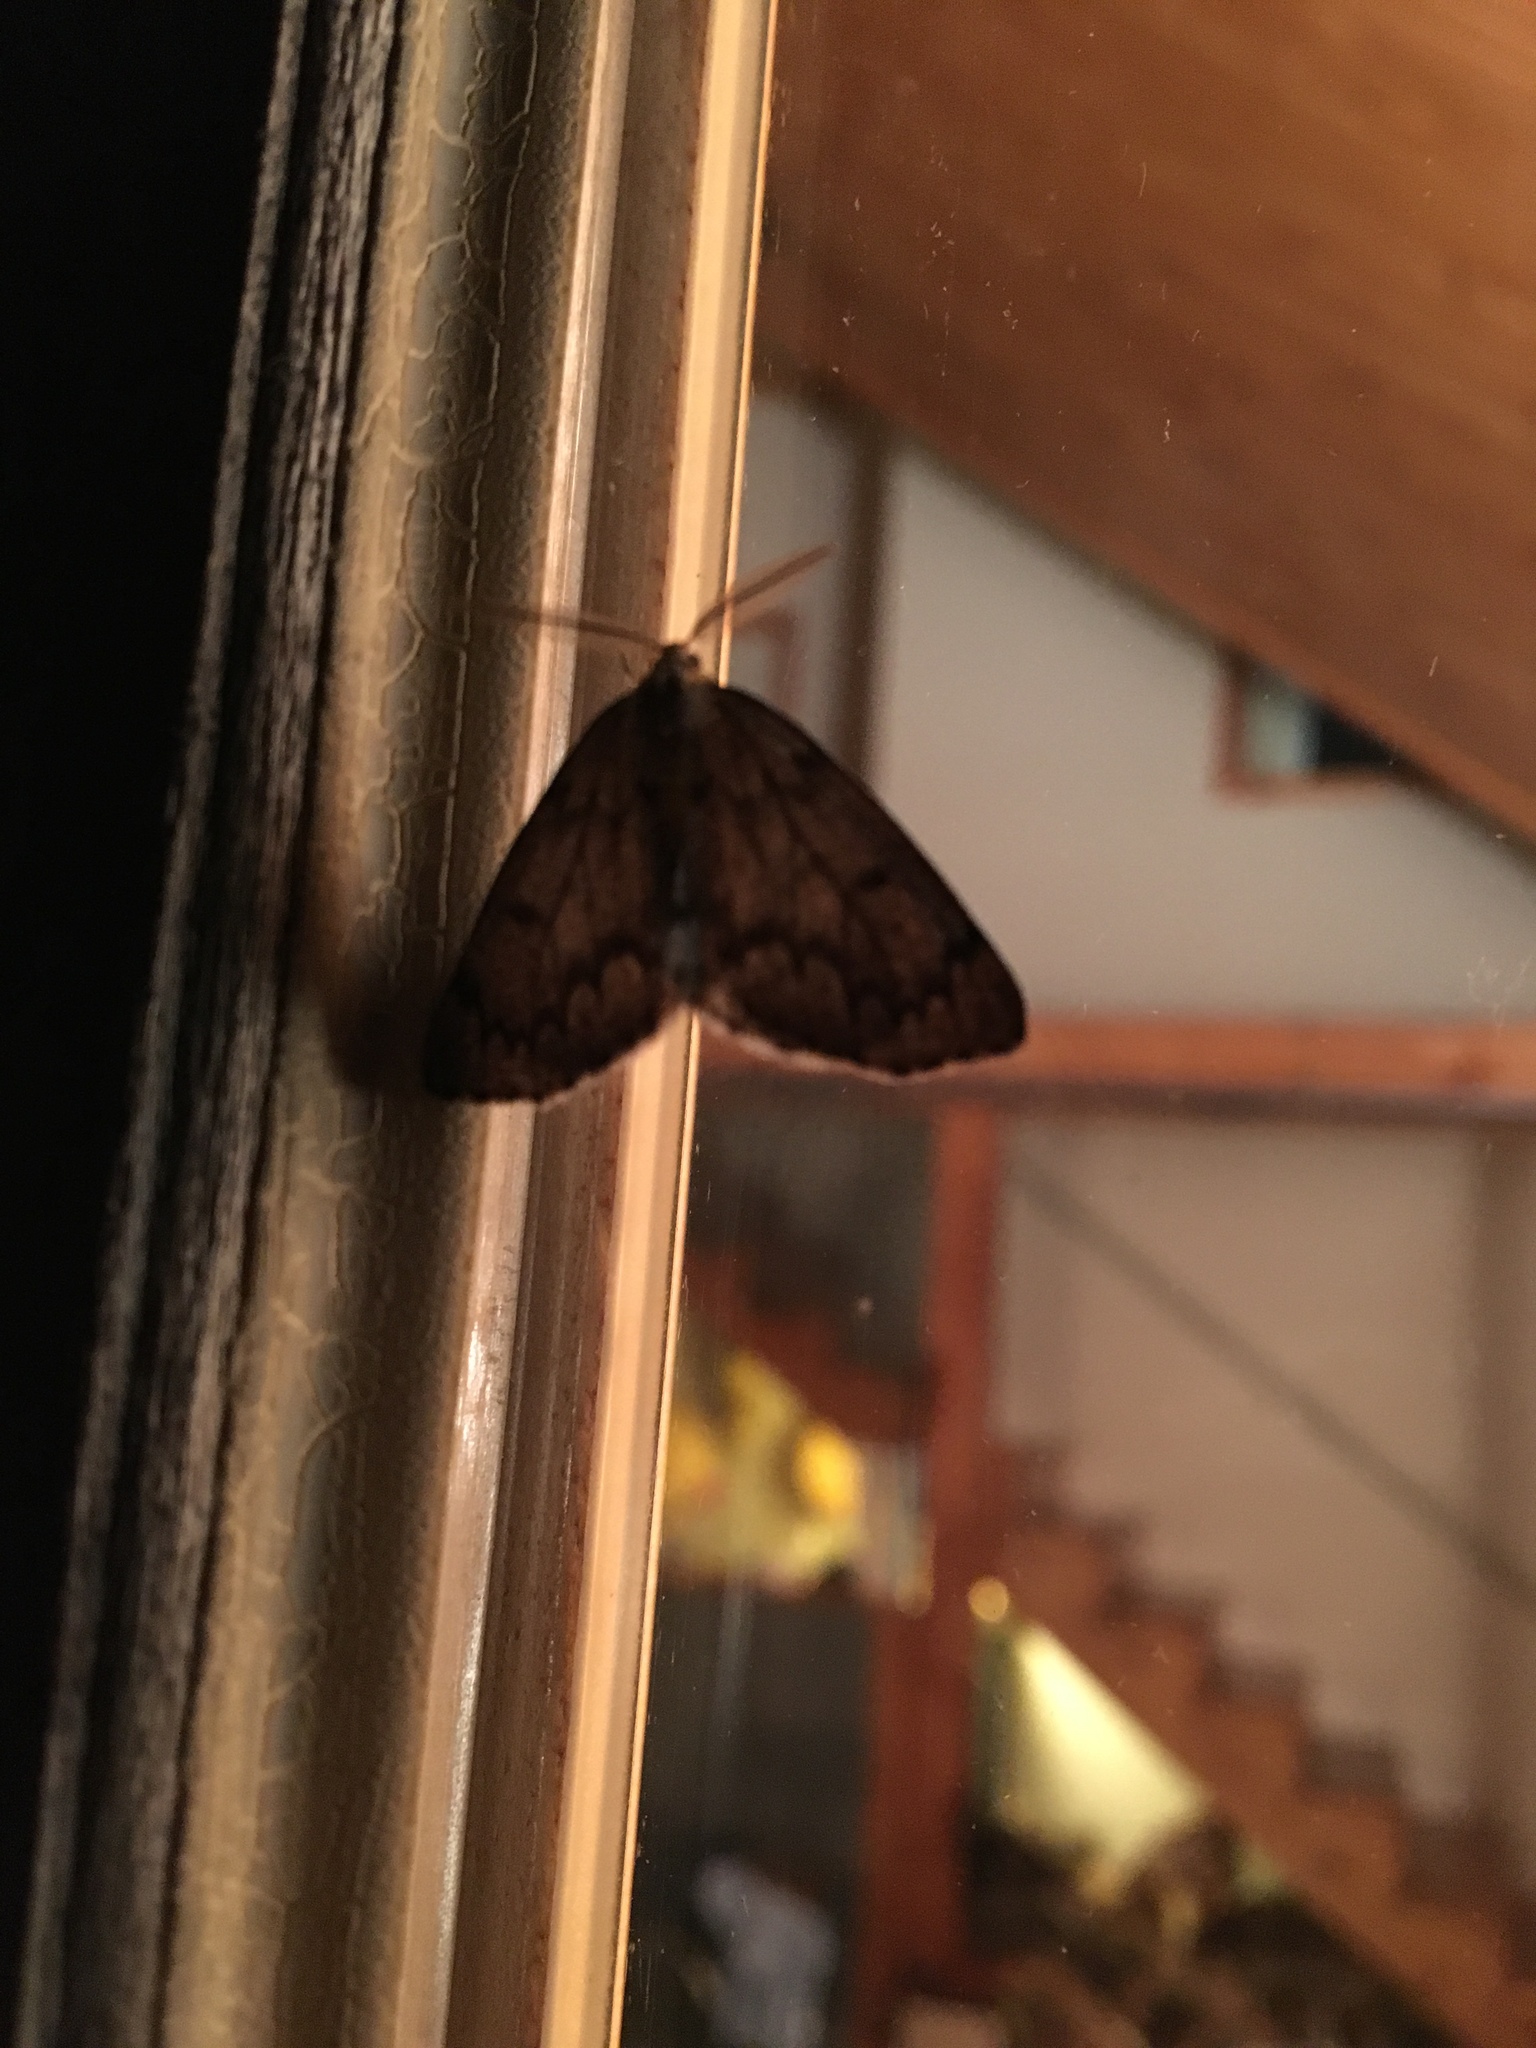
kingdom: Animalia
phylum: Arthropoda
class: Insecta
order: Lepidoptera
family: Geometridae
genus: Nepytia
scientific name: Nepytia canosaria
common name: False hemlock looper
